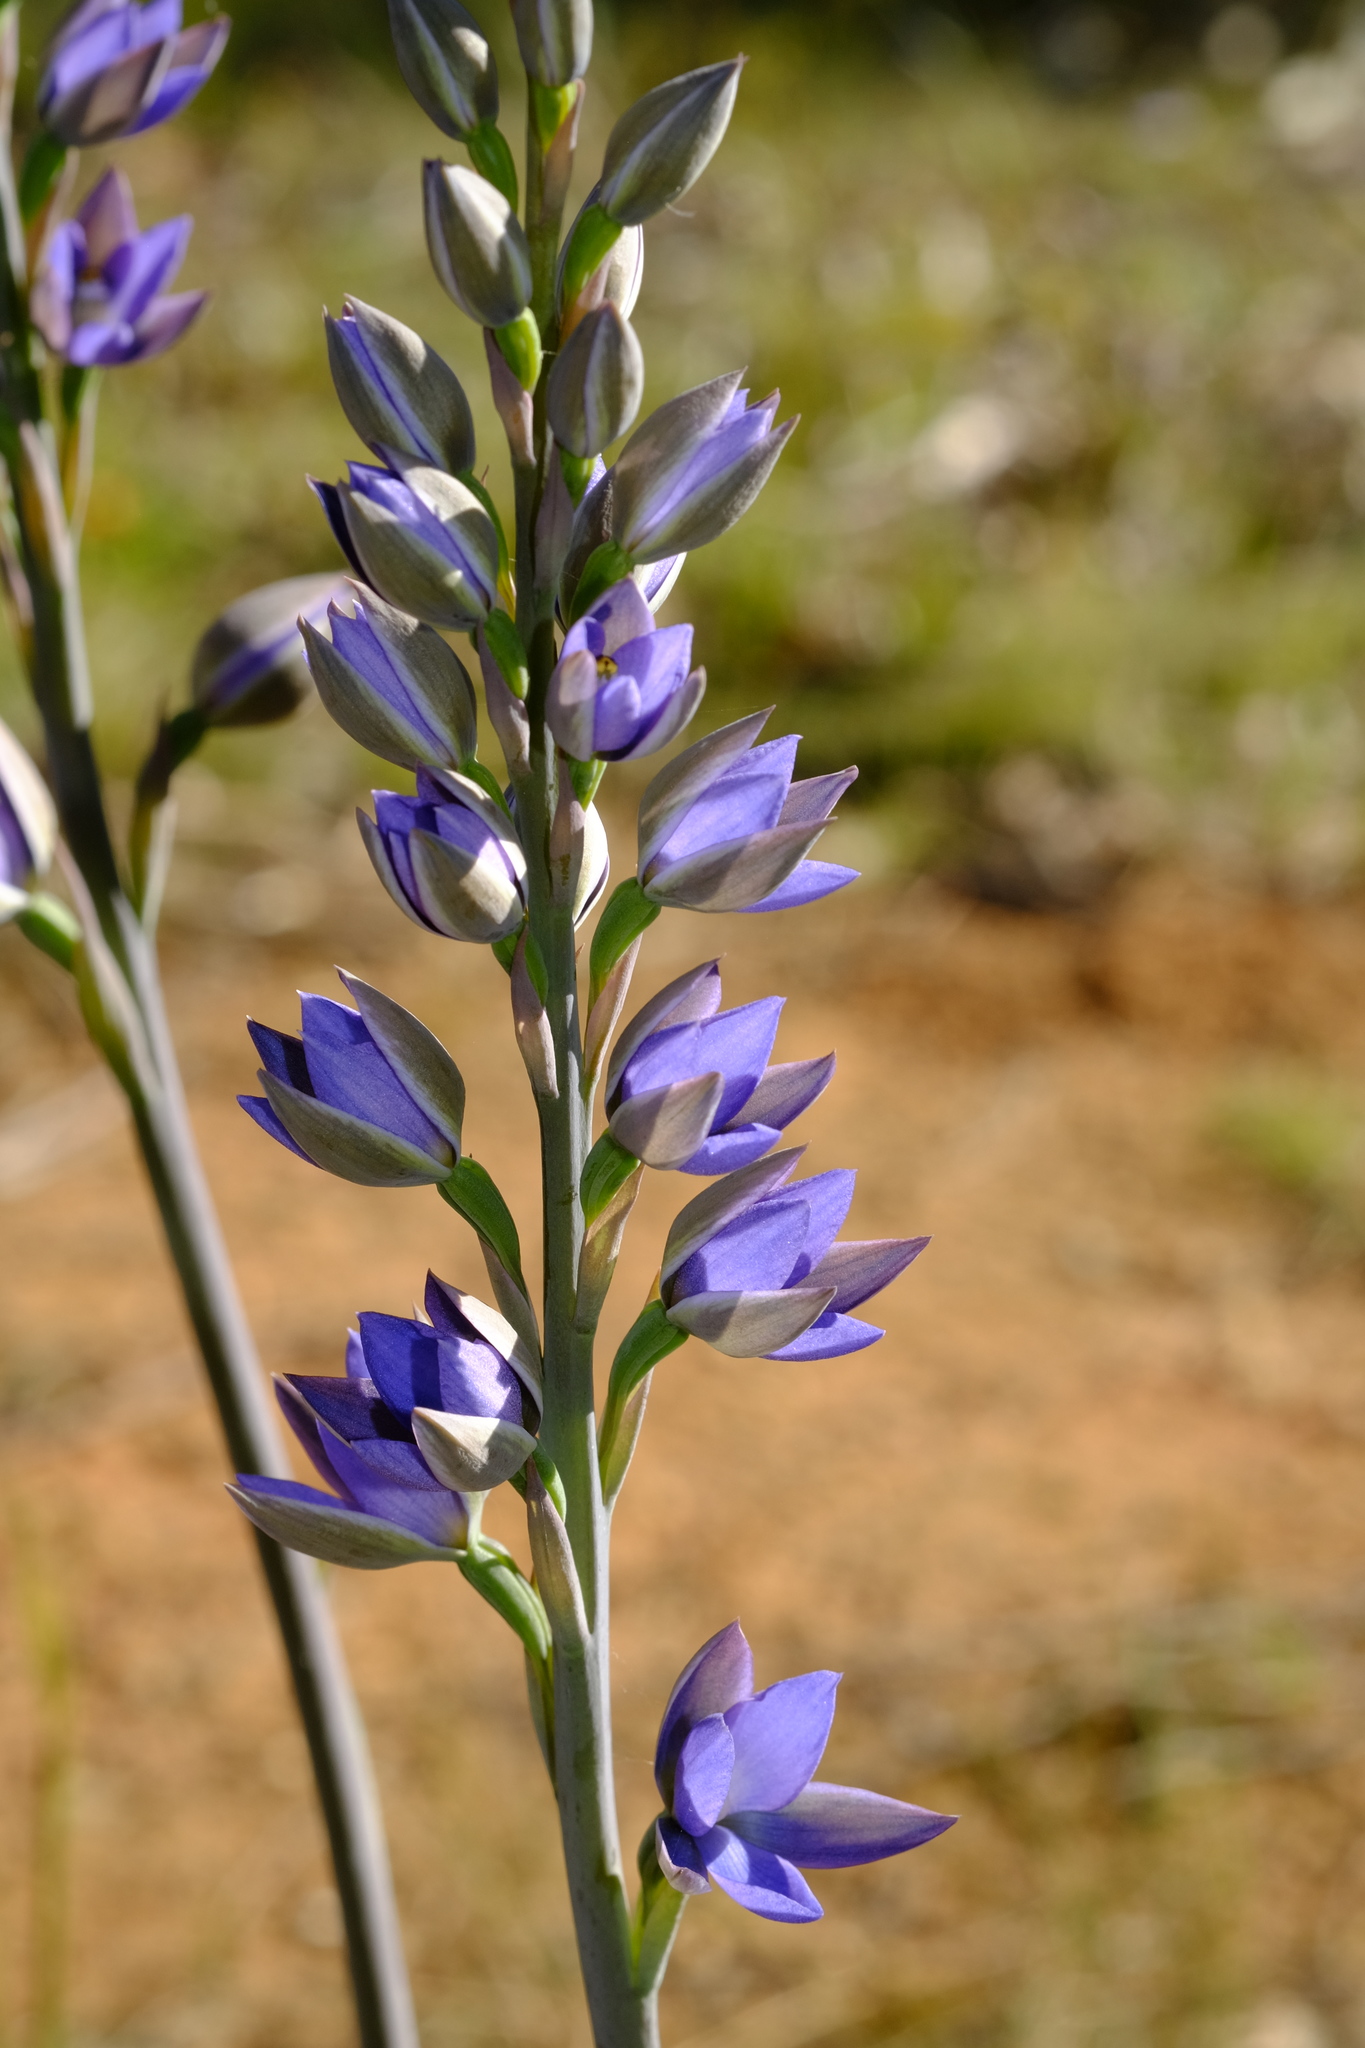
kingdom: Plantae
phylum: Tracheophyta
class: Liliopsida
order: Asparagales
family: Orchidaceae
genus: Thelymitra
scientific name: Thelymitra aristata
